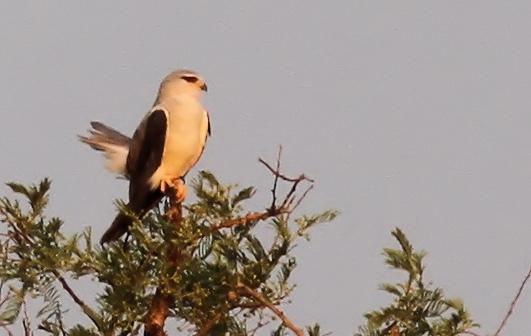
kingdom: Animalia
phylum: Chordata
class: Aves
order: Accipitriformes
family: Accipitridae
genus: Elanus
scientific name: Elanus caeruleus
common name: Black-winged kite
